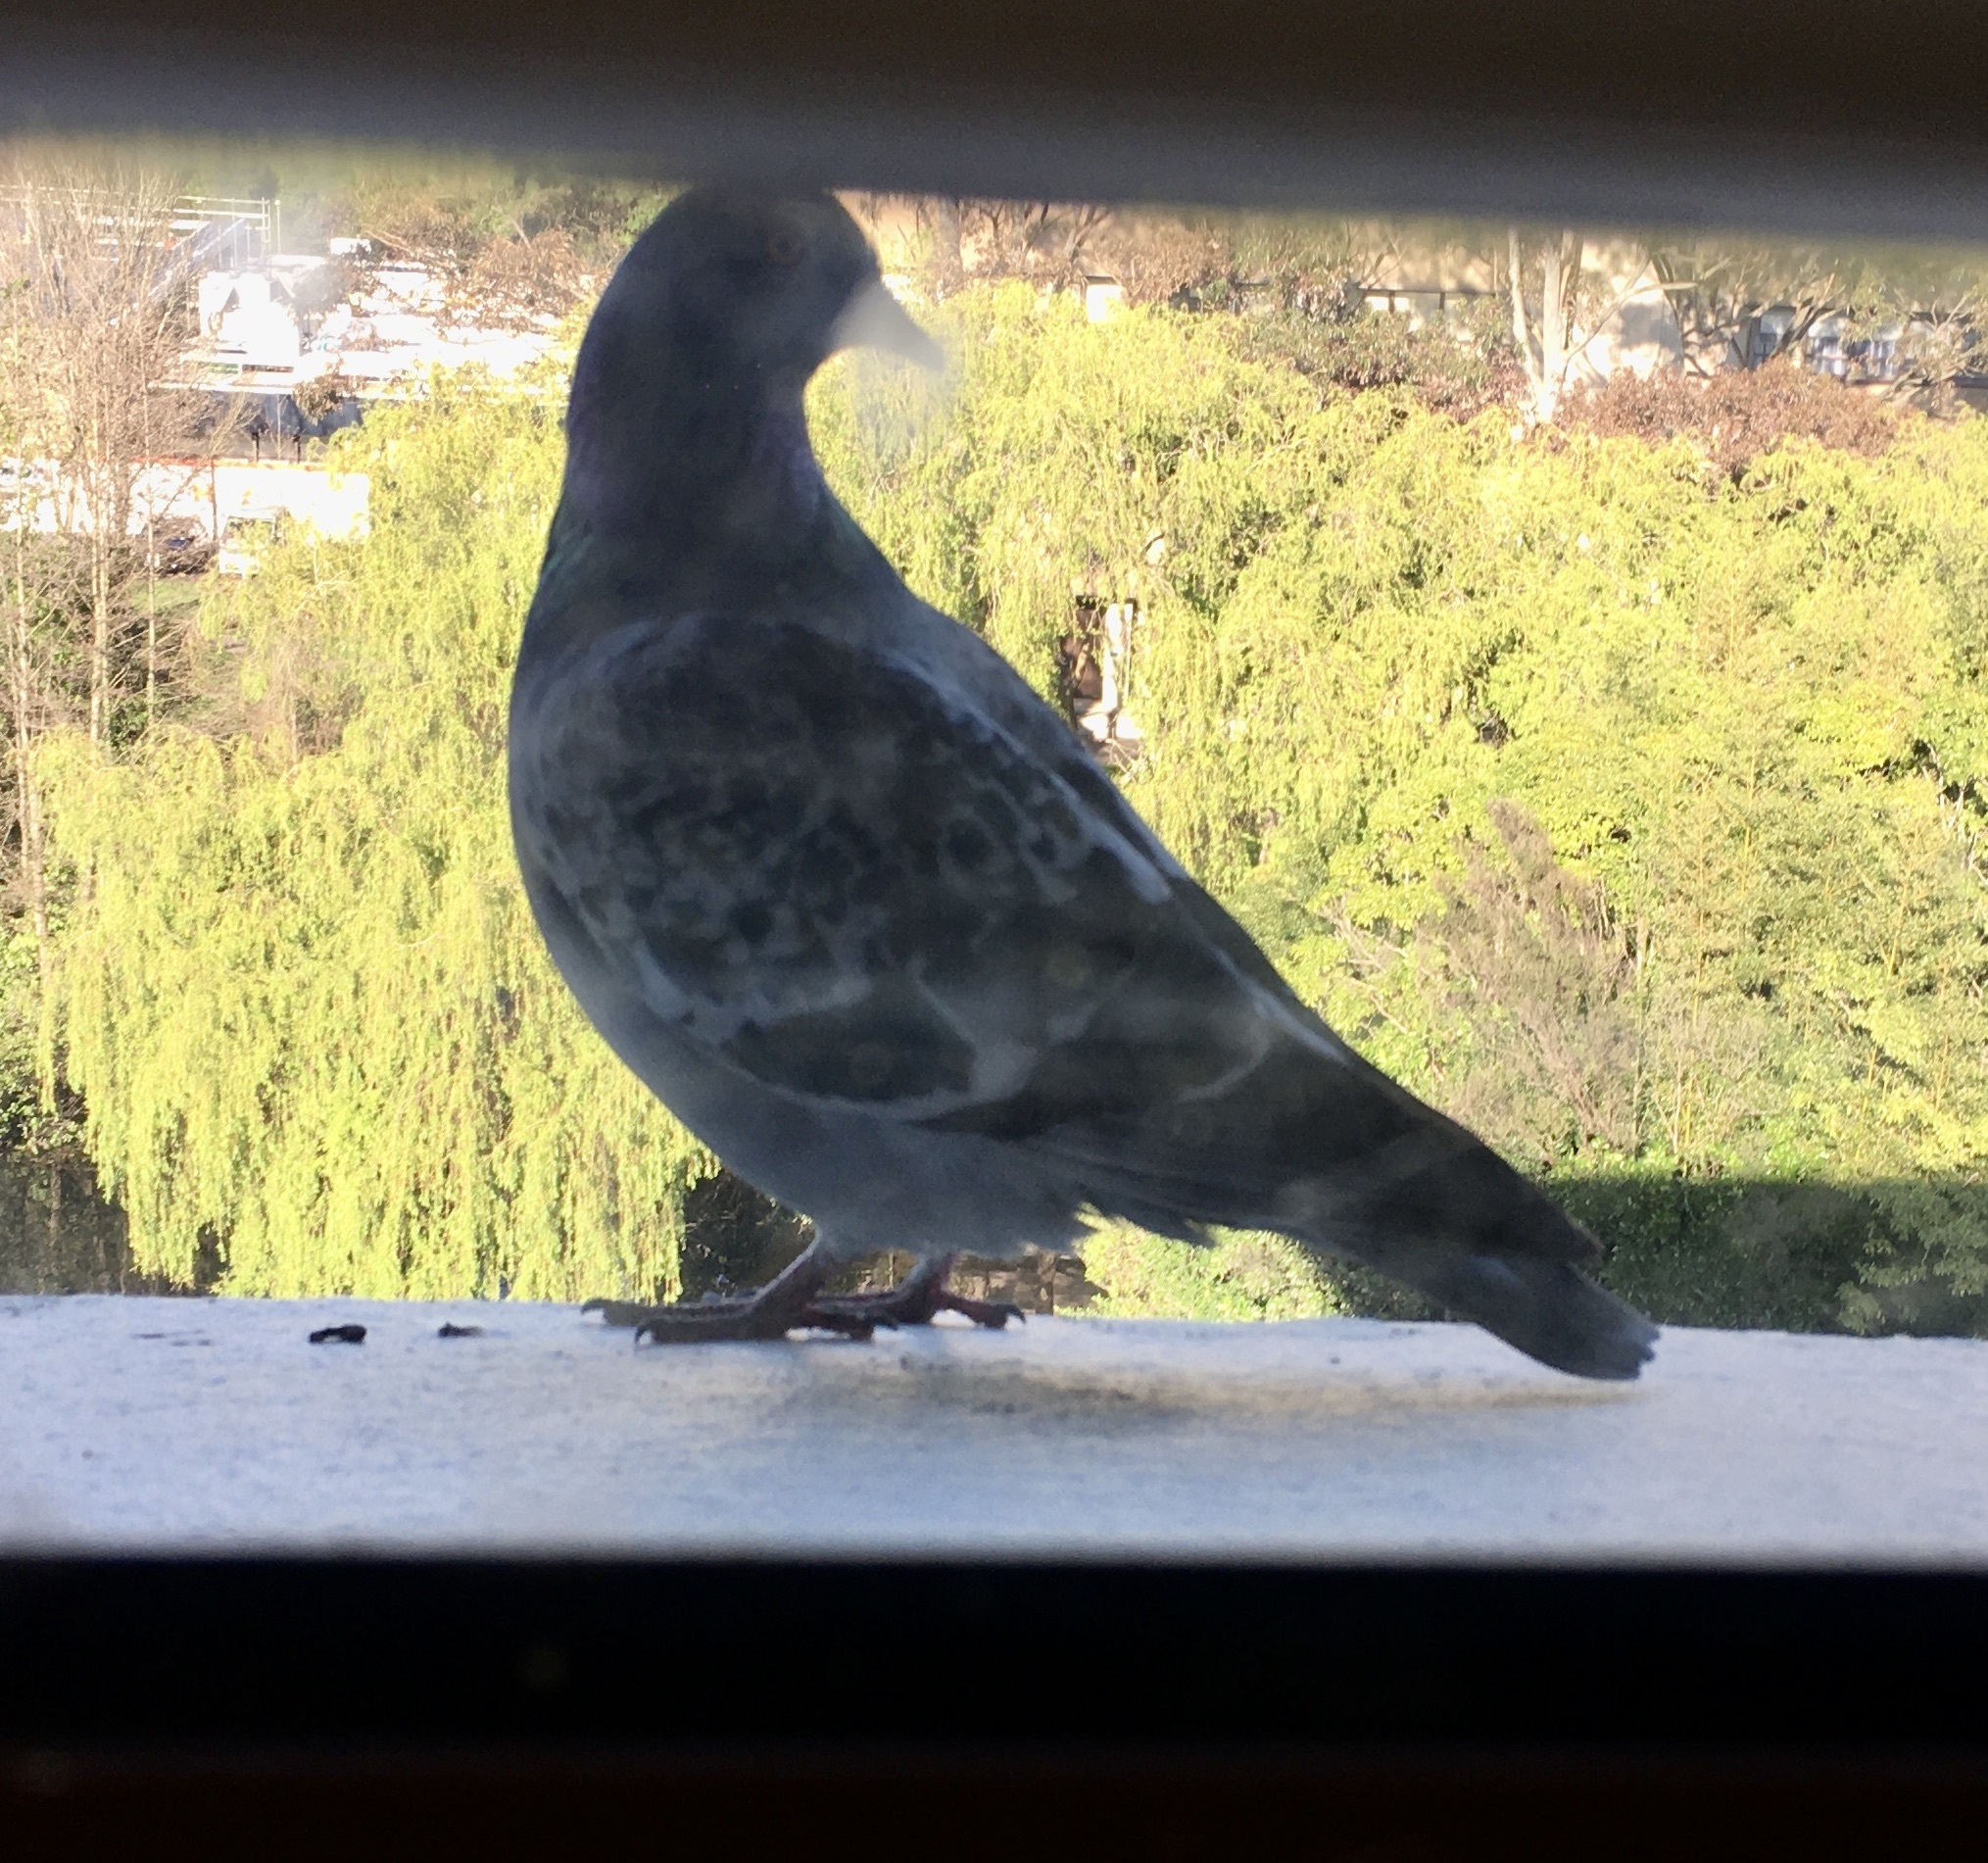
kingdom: Animalia
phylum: Chordata
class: Aves
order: Columbiformes
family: Columbidae
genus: Columba
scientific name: Columba livia
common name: Rock pigeon
